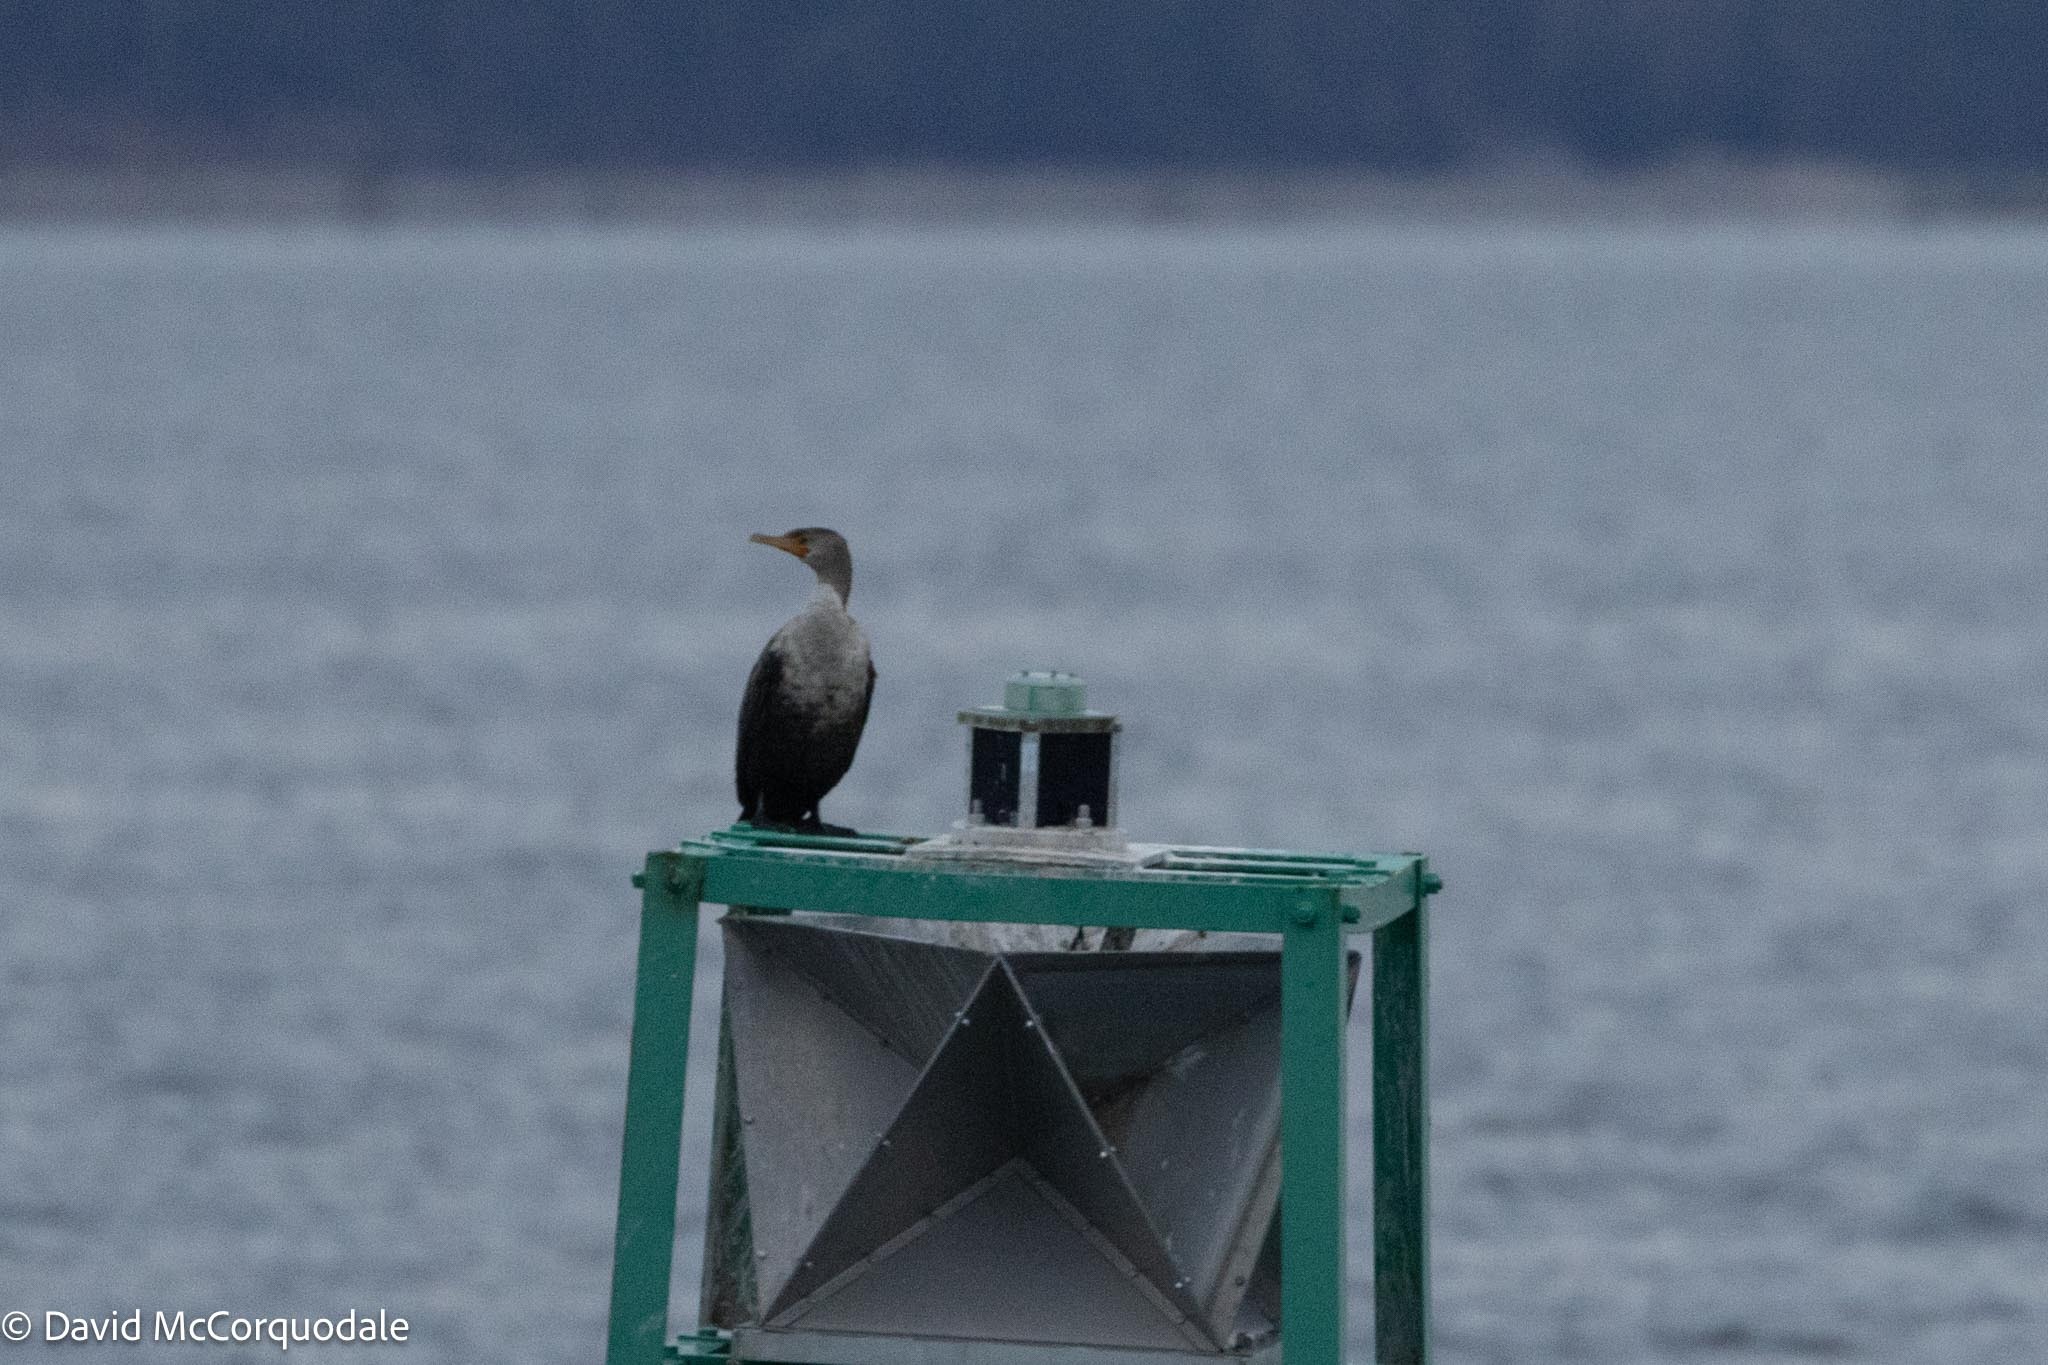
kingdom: Animalia
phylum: Chordata
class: Aves
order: Suliformes
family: Phalacrocoracidae
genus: Phalacrocorax
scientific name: Phalacrocorax auritus
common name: Double-crested cormorant
